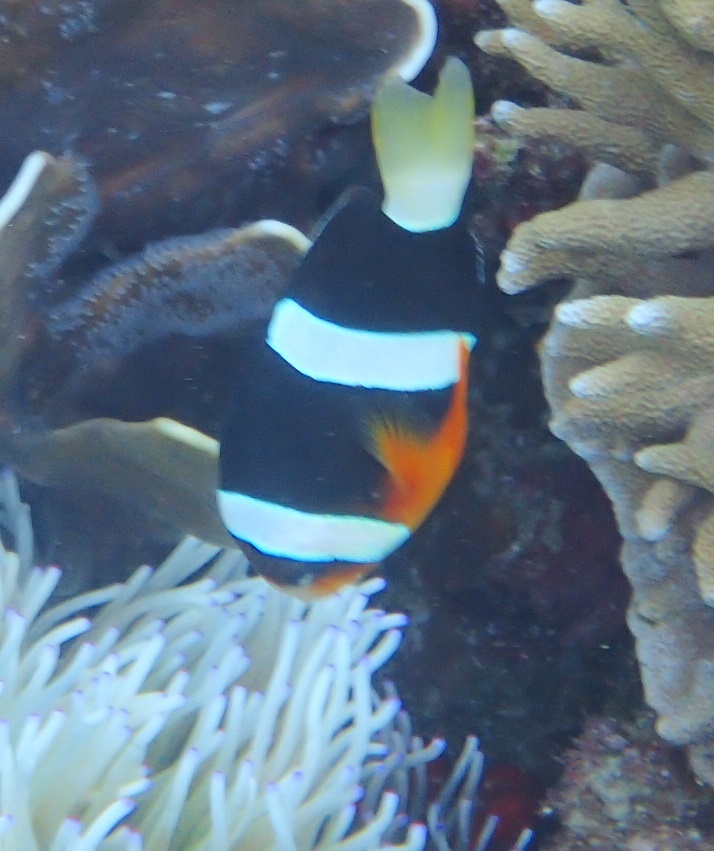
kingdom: Animalia
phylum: Chordata
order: Perciformes
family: Pomacentridae
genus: Amphiprion
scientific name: Amphiprion clarkii
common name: Clark's anemonefish
